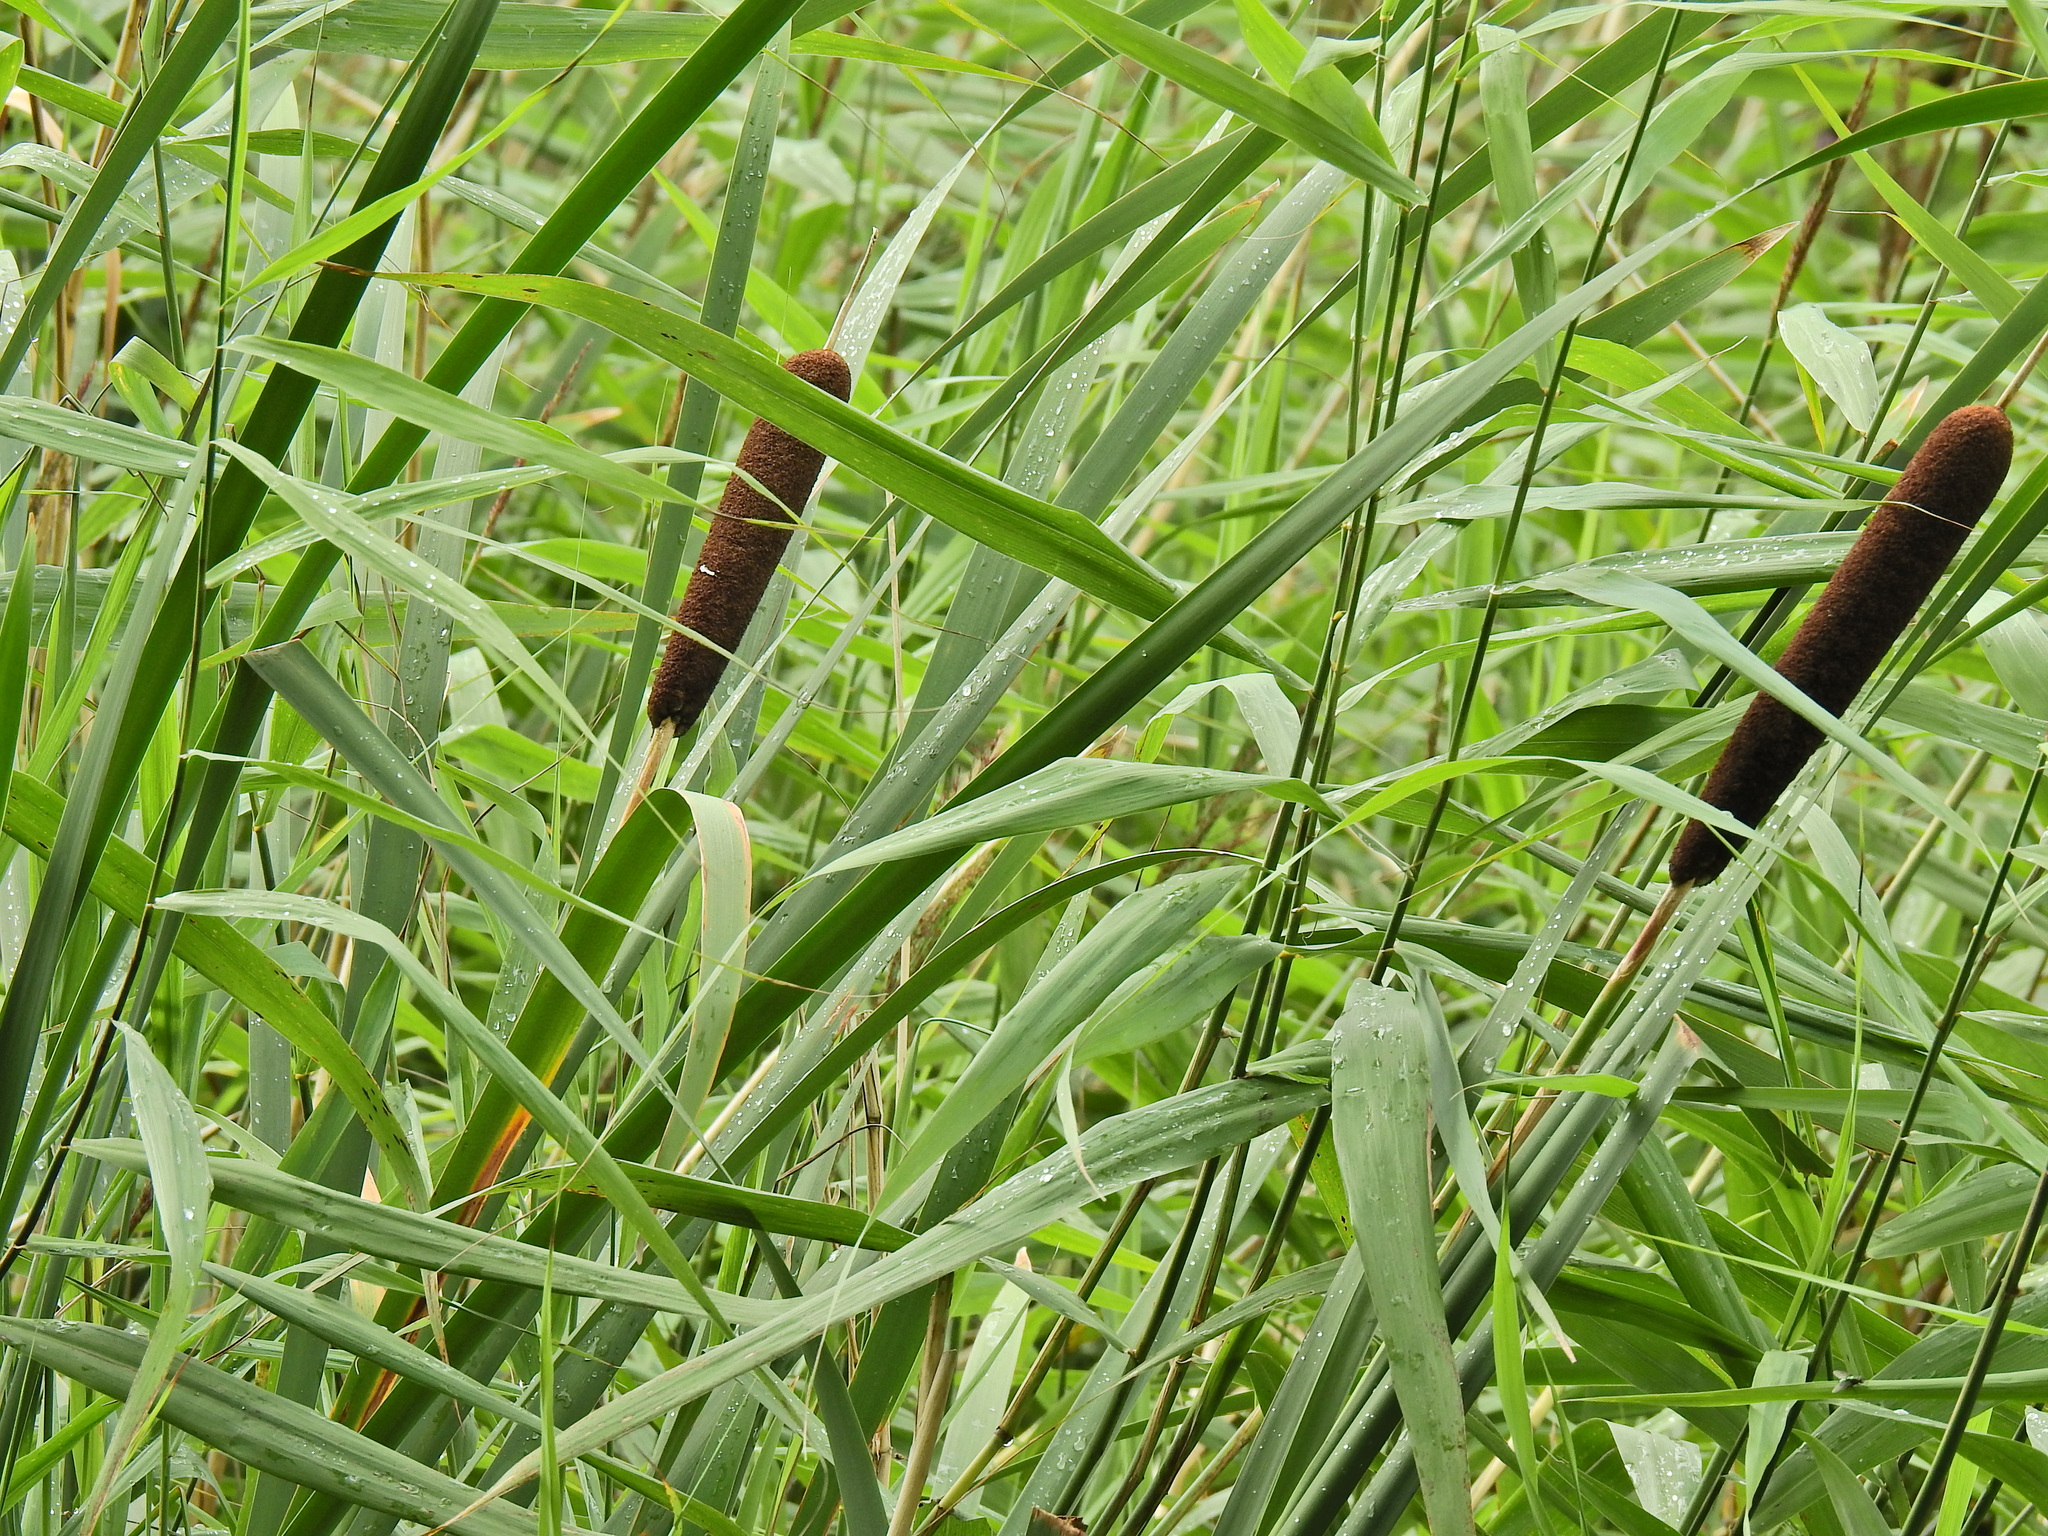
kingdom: Plantae
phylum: Tracheophyta
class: Liliopsida
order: Poales
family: Typhaceae
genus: Typha
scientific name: Typha latifolia
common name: Broadleaf cattail
